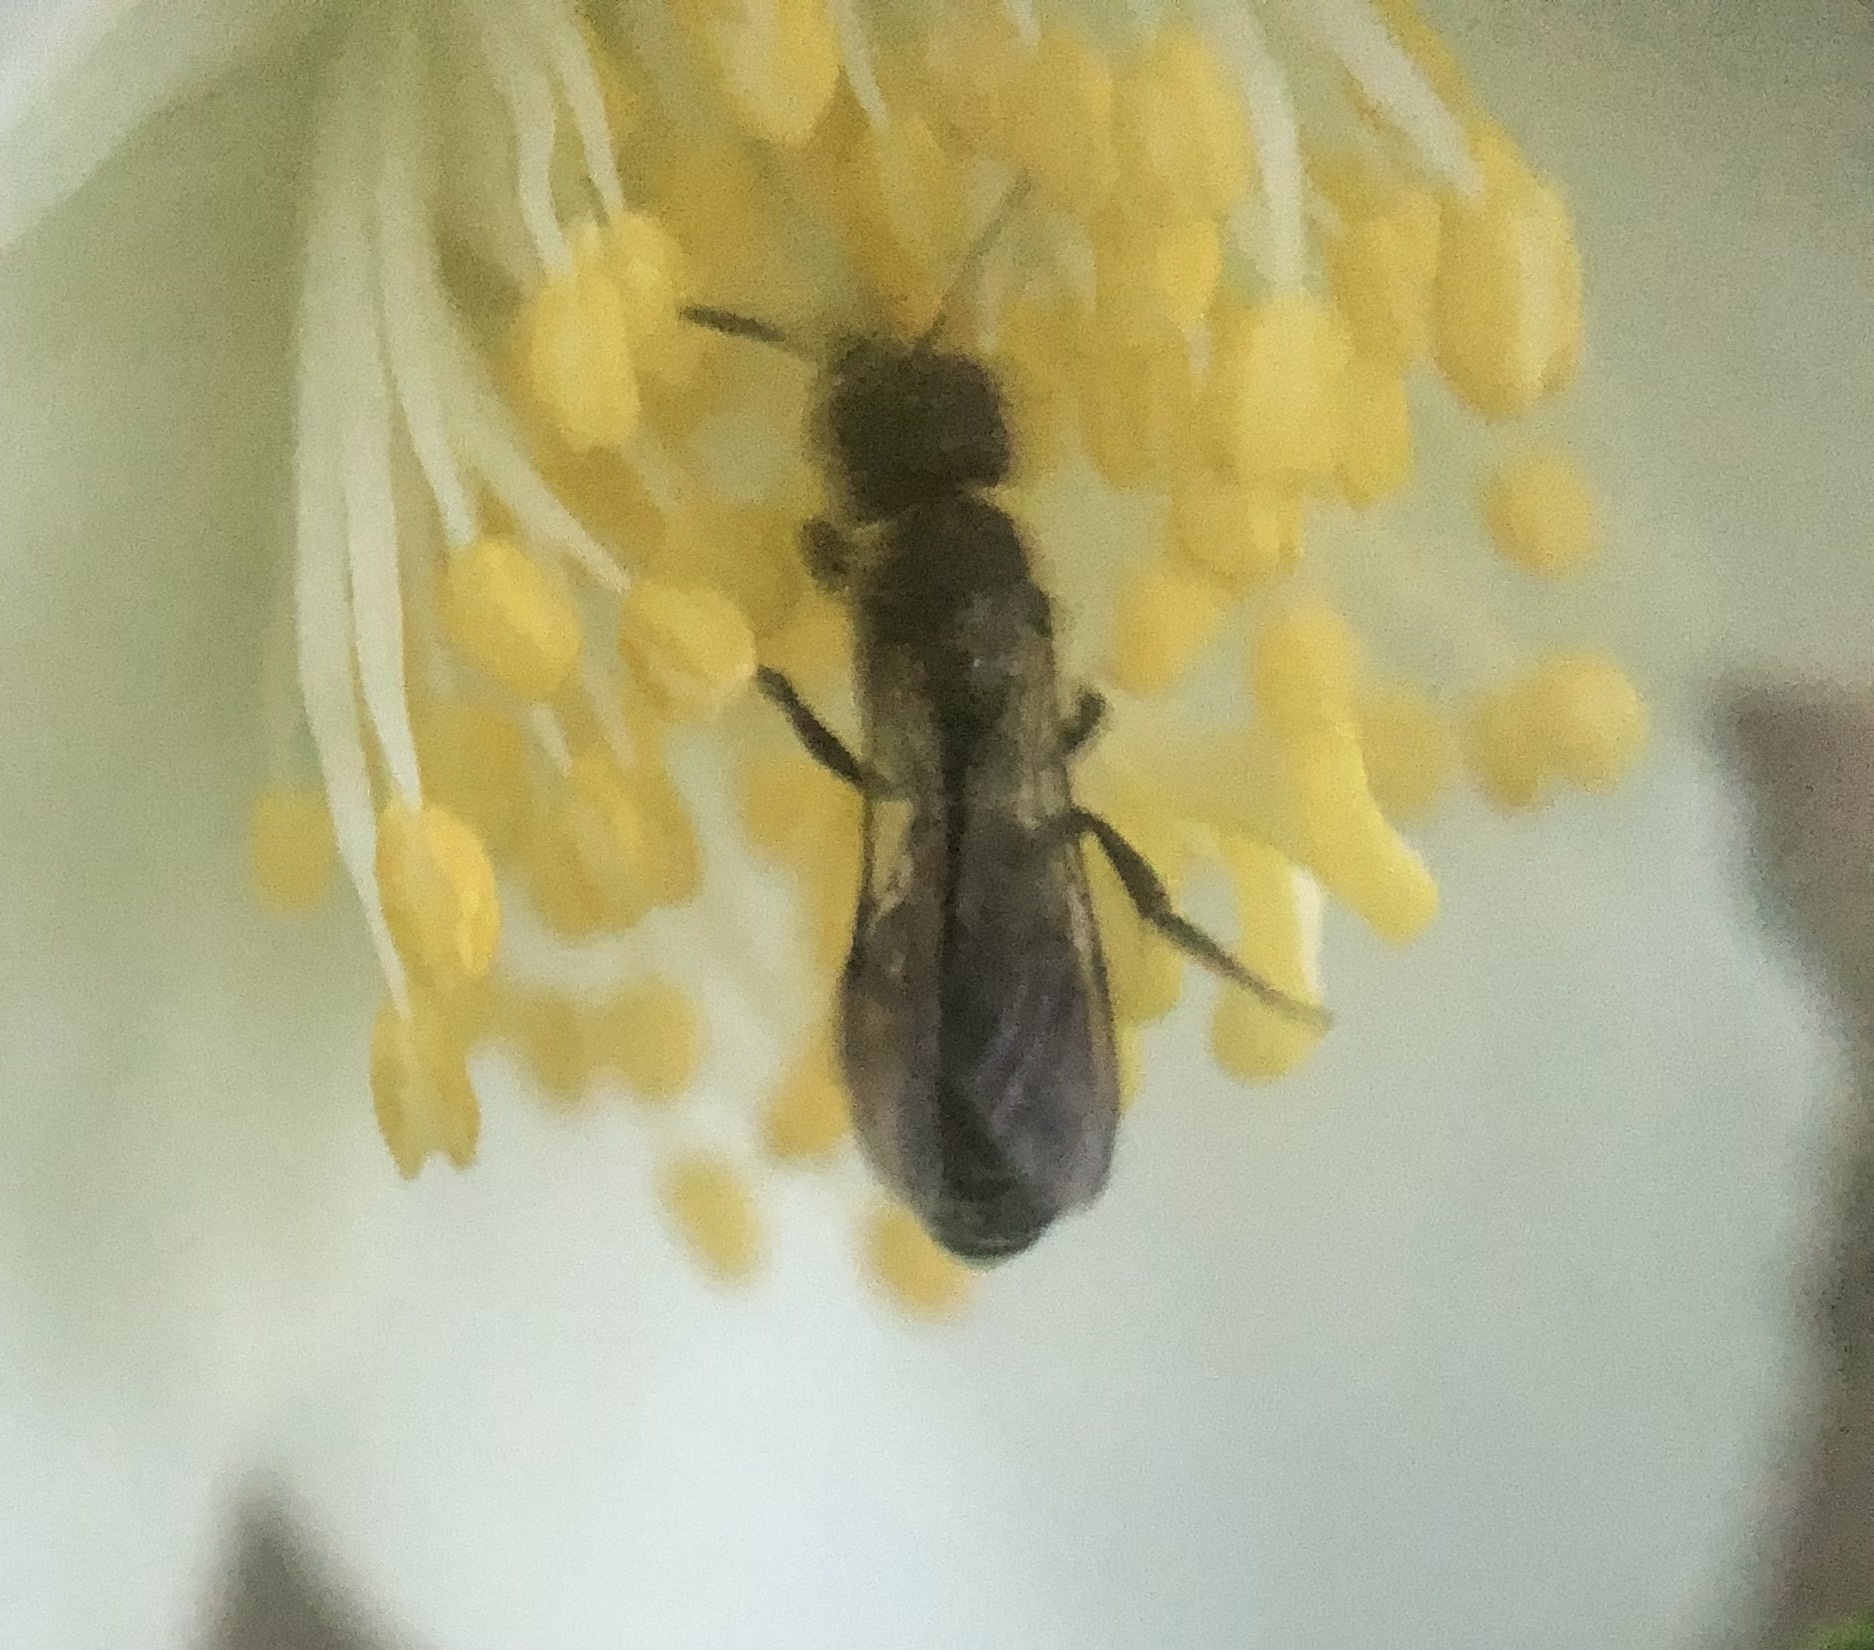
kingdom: Animalia
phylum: Arthropoda
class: Insecta
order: Hymenoptera
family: Megachilidae
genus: Chelostoma
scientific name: Chelostoma philadelphi
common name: Mock-orange scissor bee
